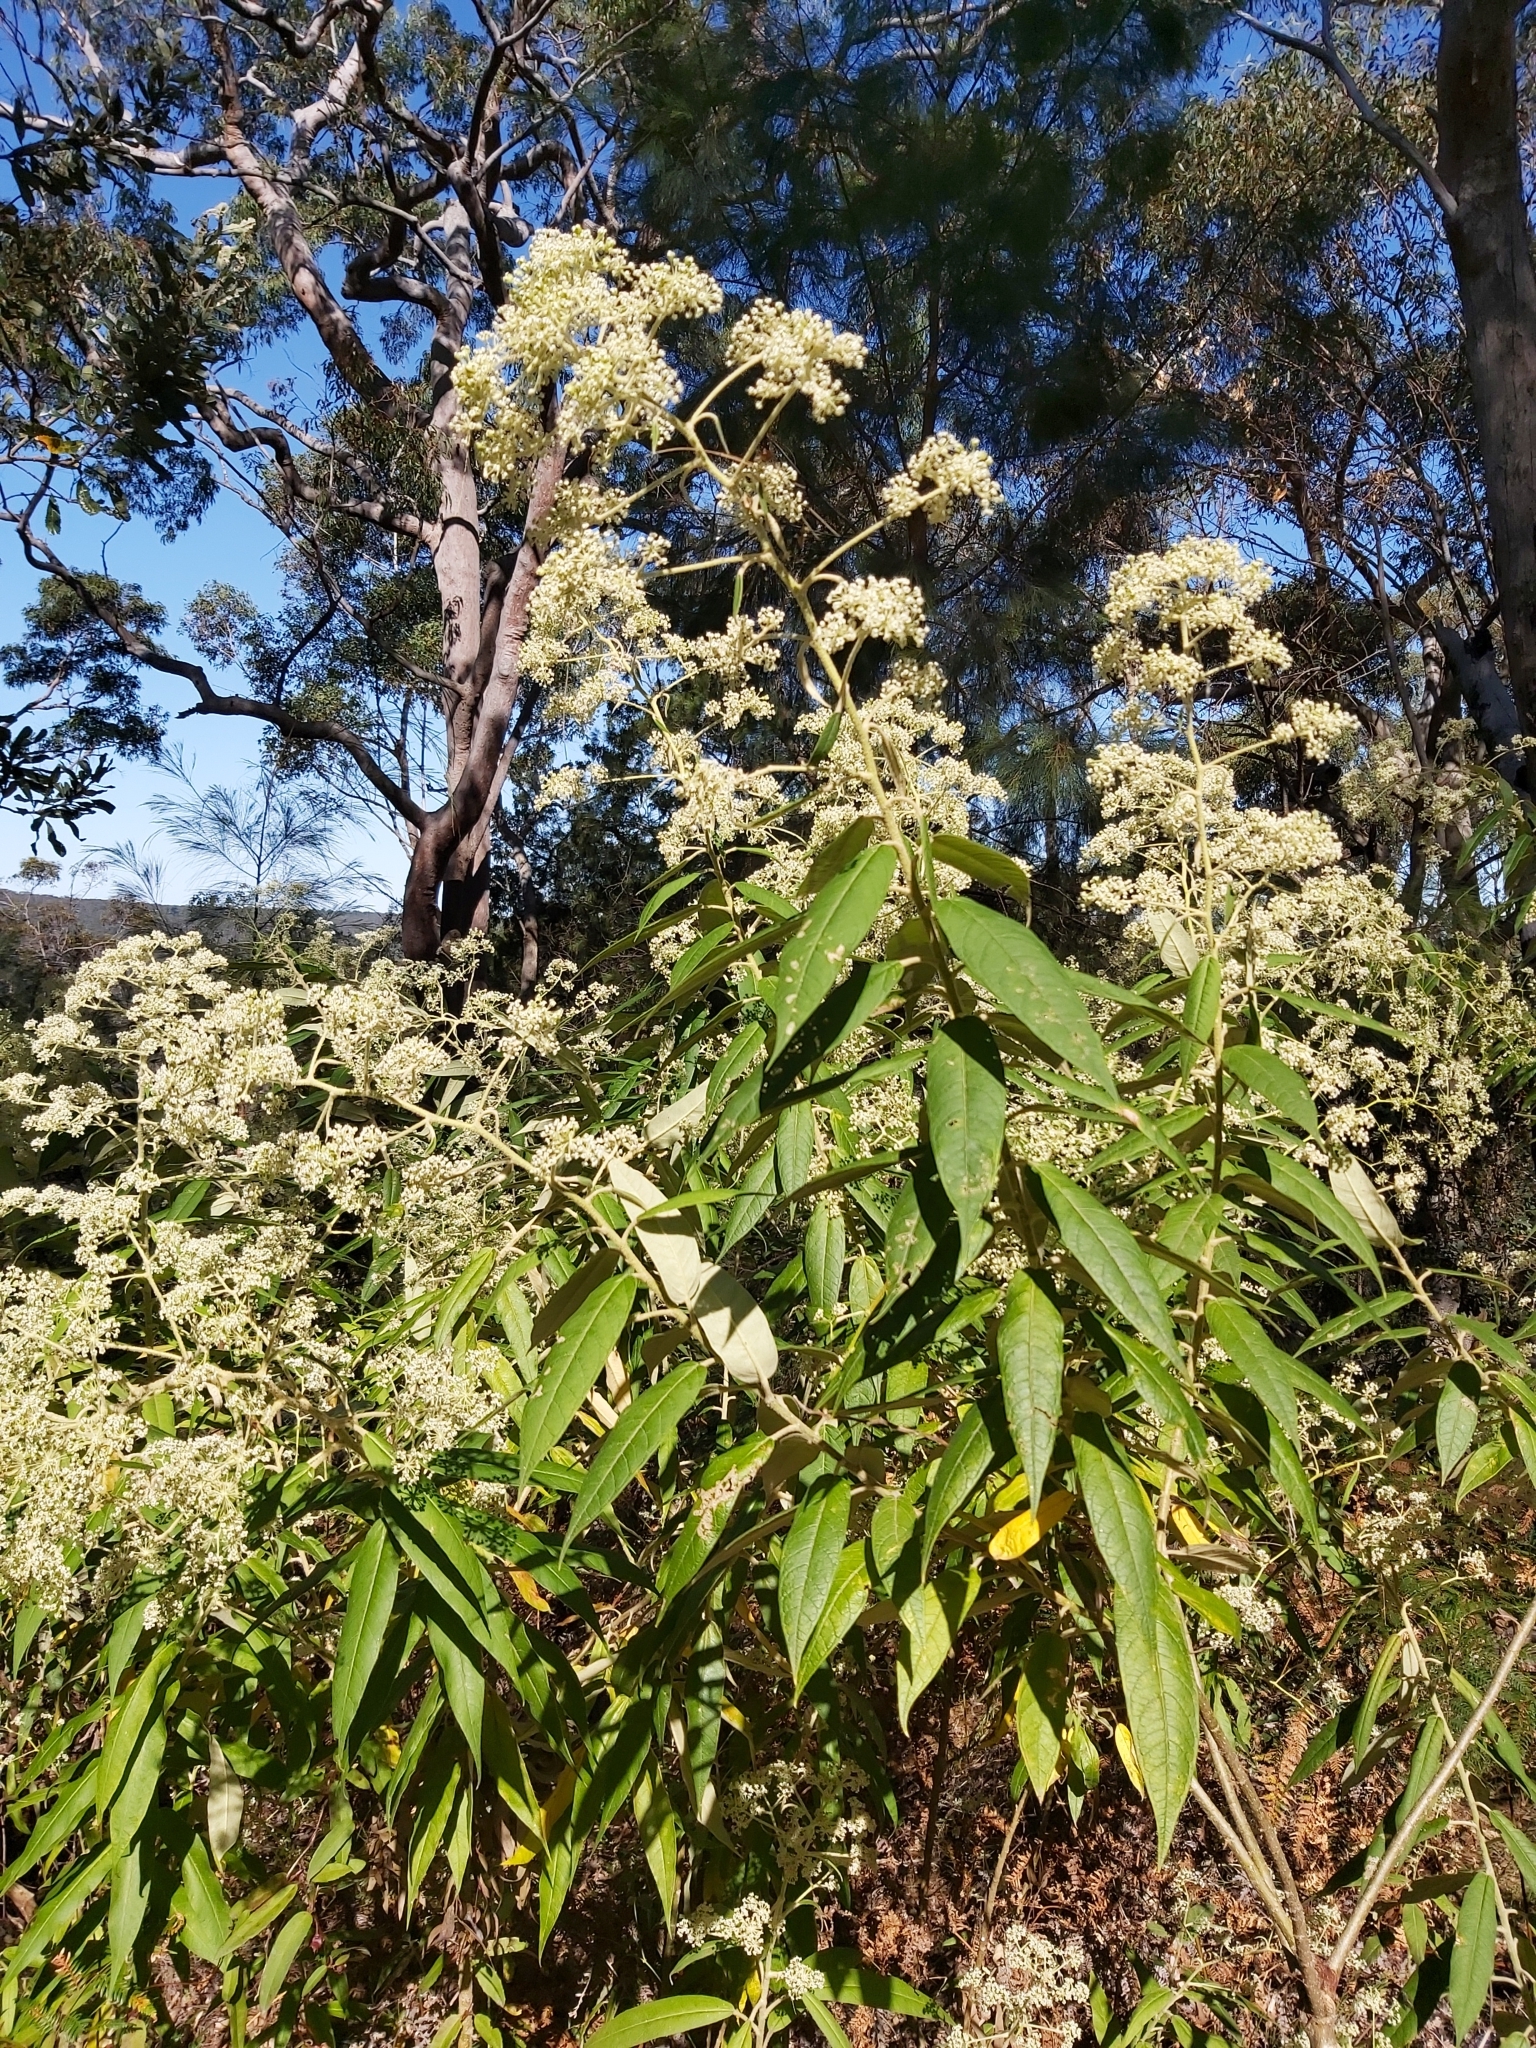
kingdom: Plantae
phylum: Tracheophyta
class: Magnoliopsida
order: Apiales
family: Araliaceae
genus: Astrotricha
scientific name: Astrotricha floccosa
